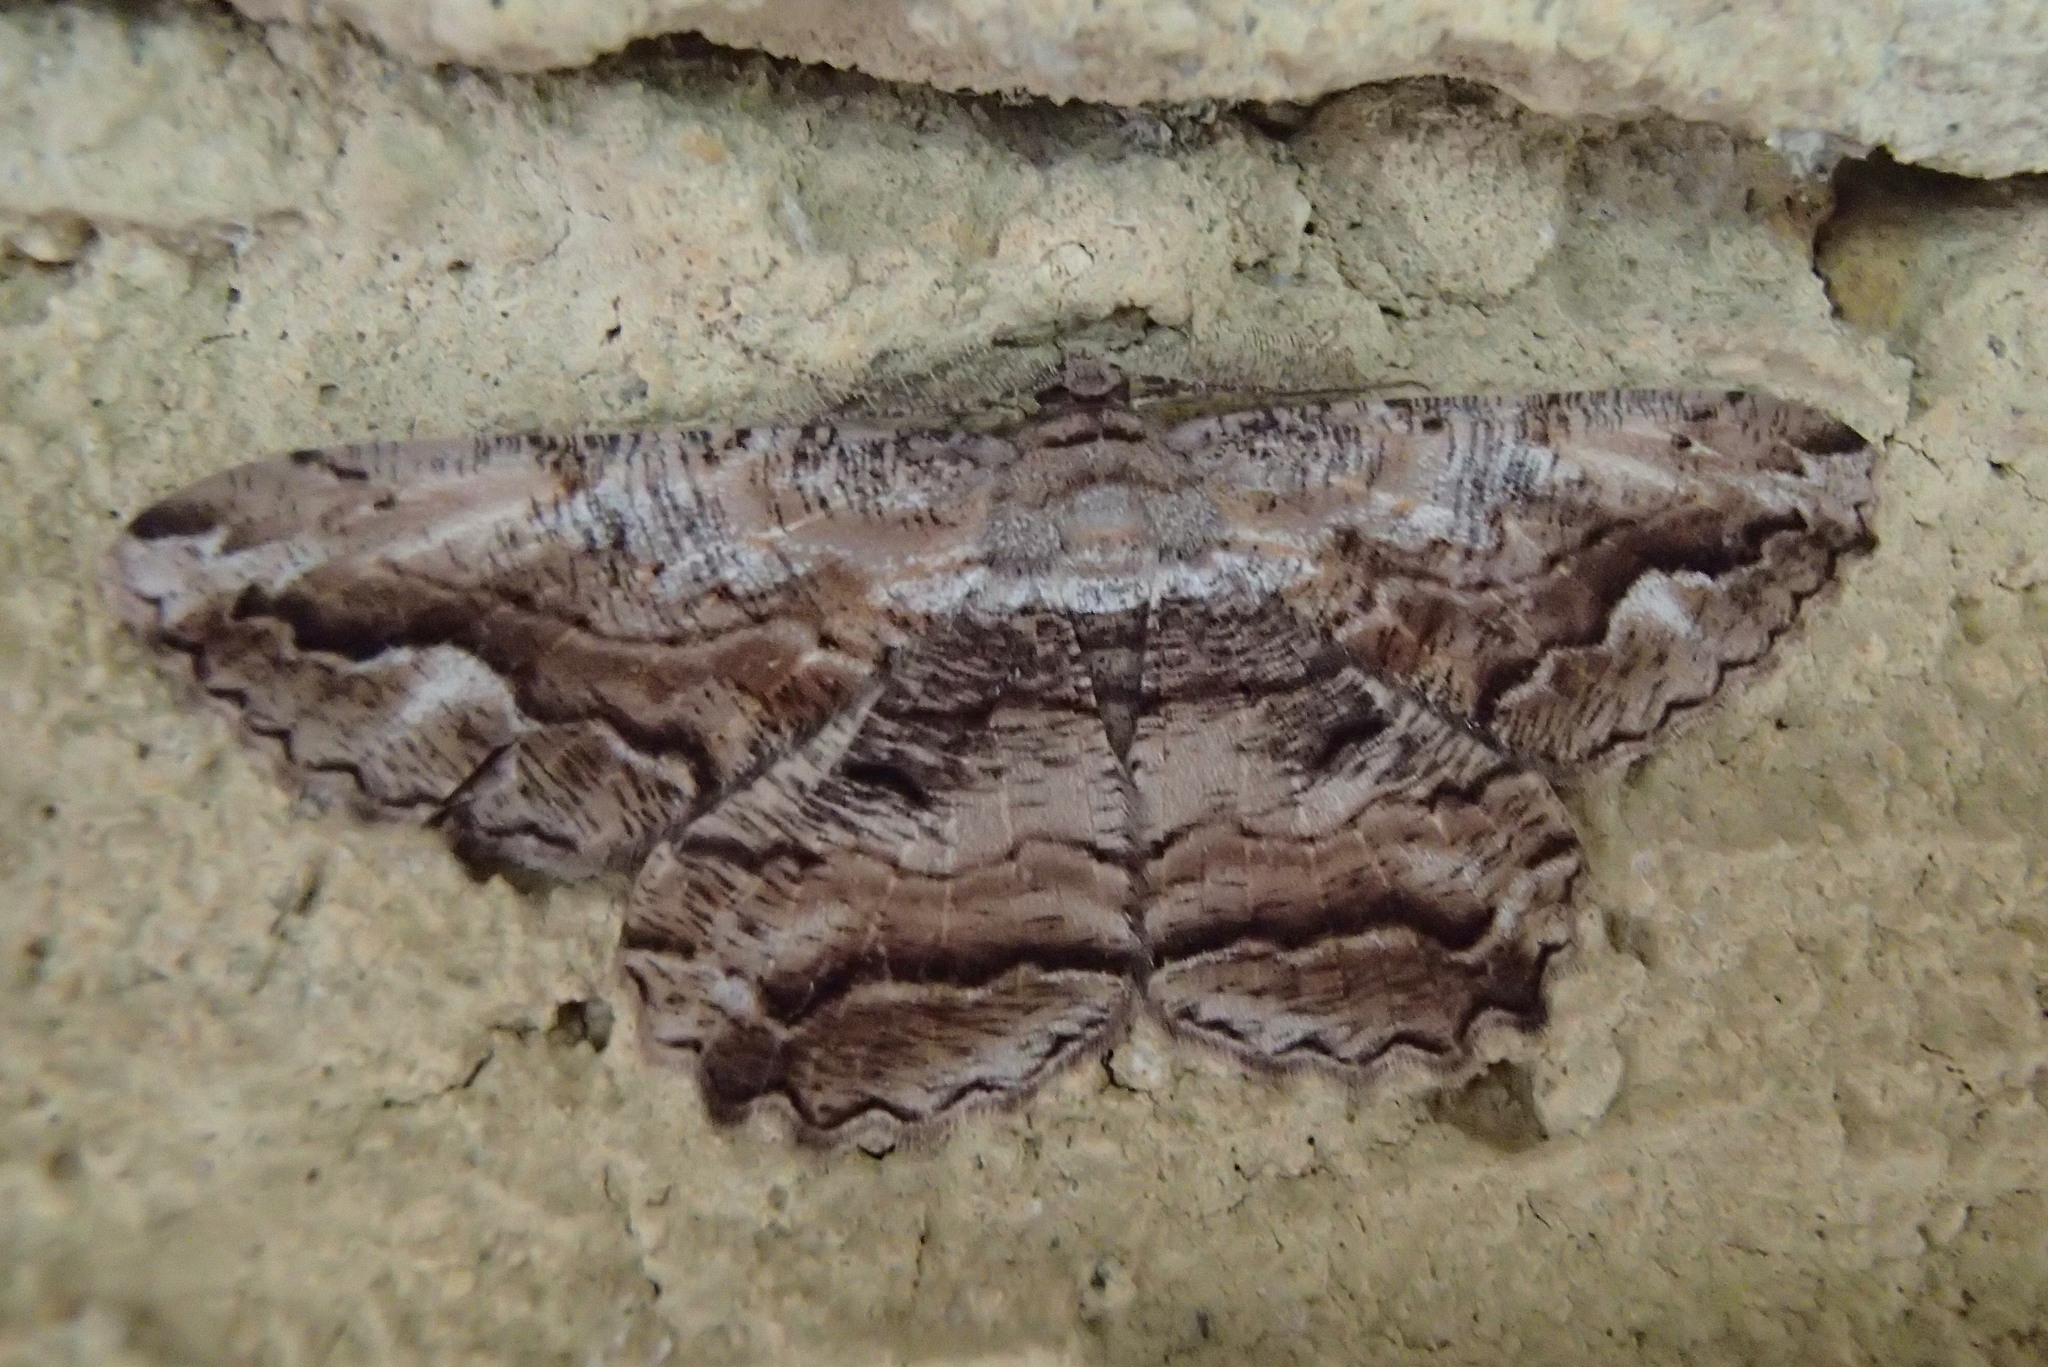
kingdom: Animalia
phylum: Arthropoda
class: Insecta
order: Lepidoptera
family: Geometridae
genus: Scioglyptis
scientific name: Scioglyptis lyciaria
